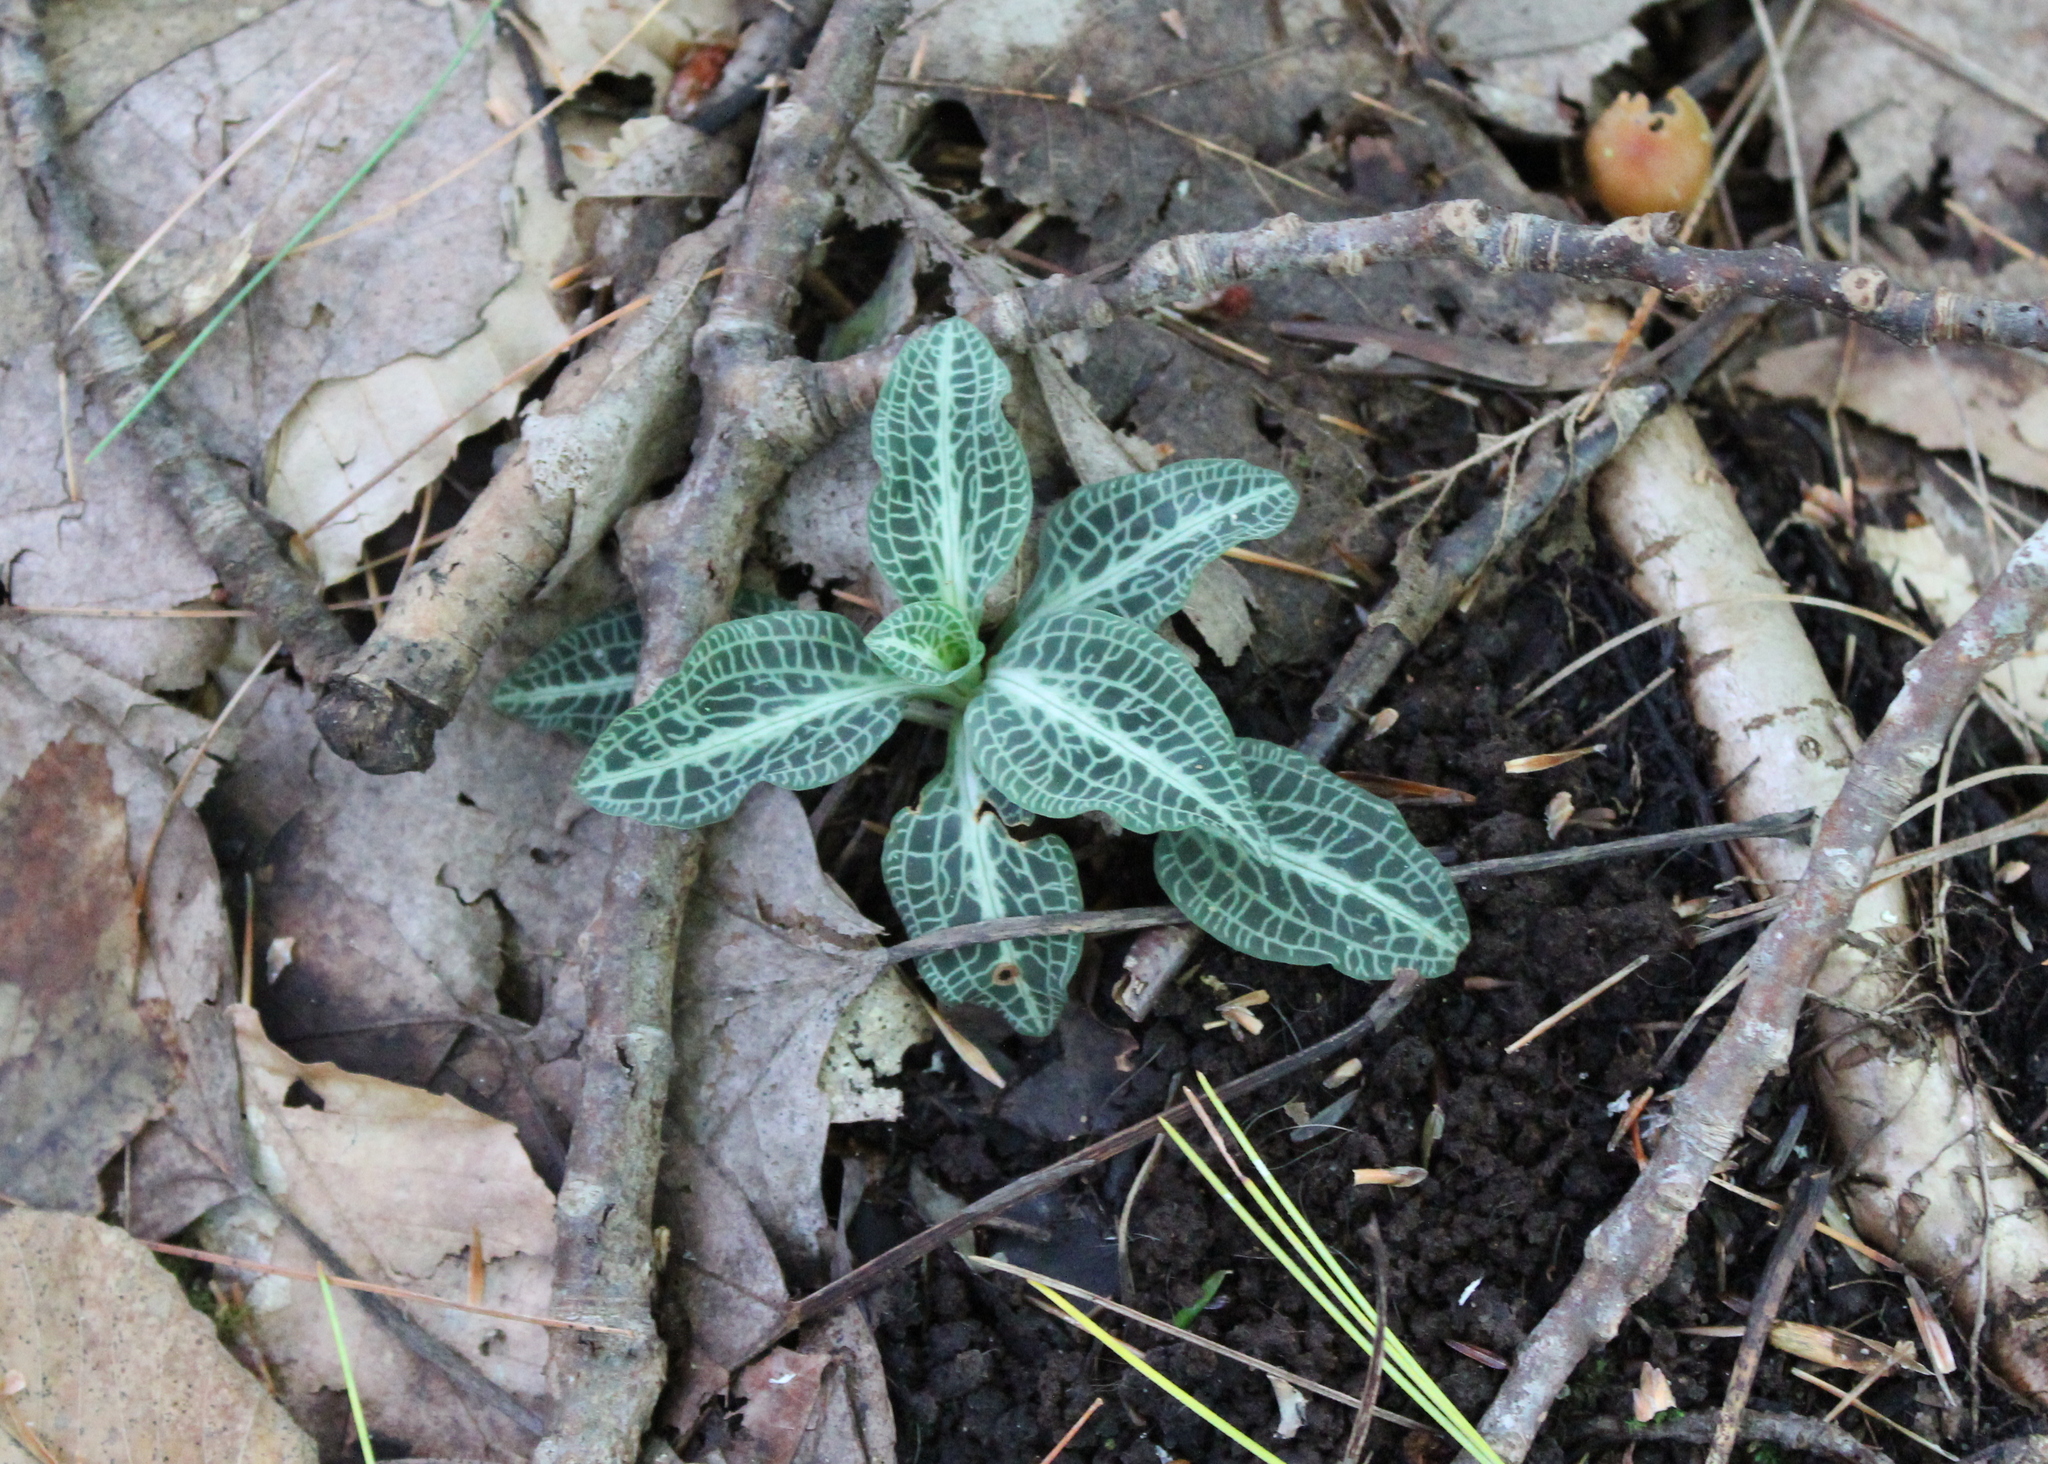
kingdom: Plantae
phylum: Tracheophyta
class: Liliopsida
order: Asparagales
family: Orchidaceae
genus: Goodyera
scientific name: Goodyera pubescens
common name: Downy rattlesnake-plantain
